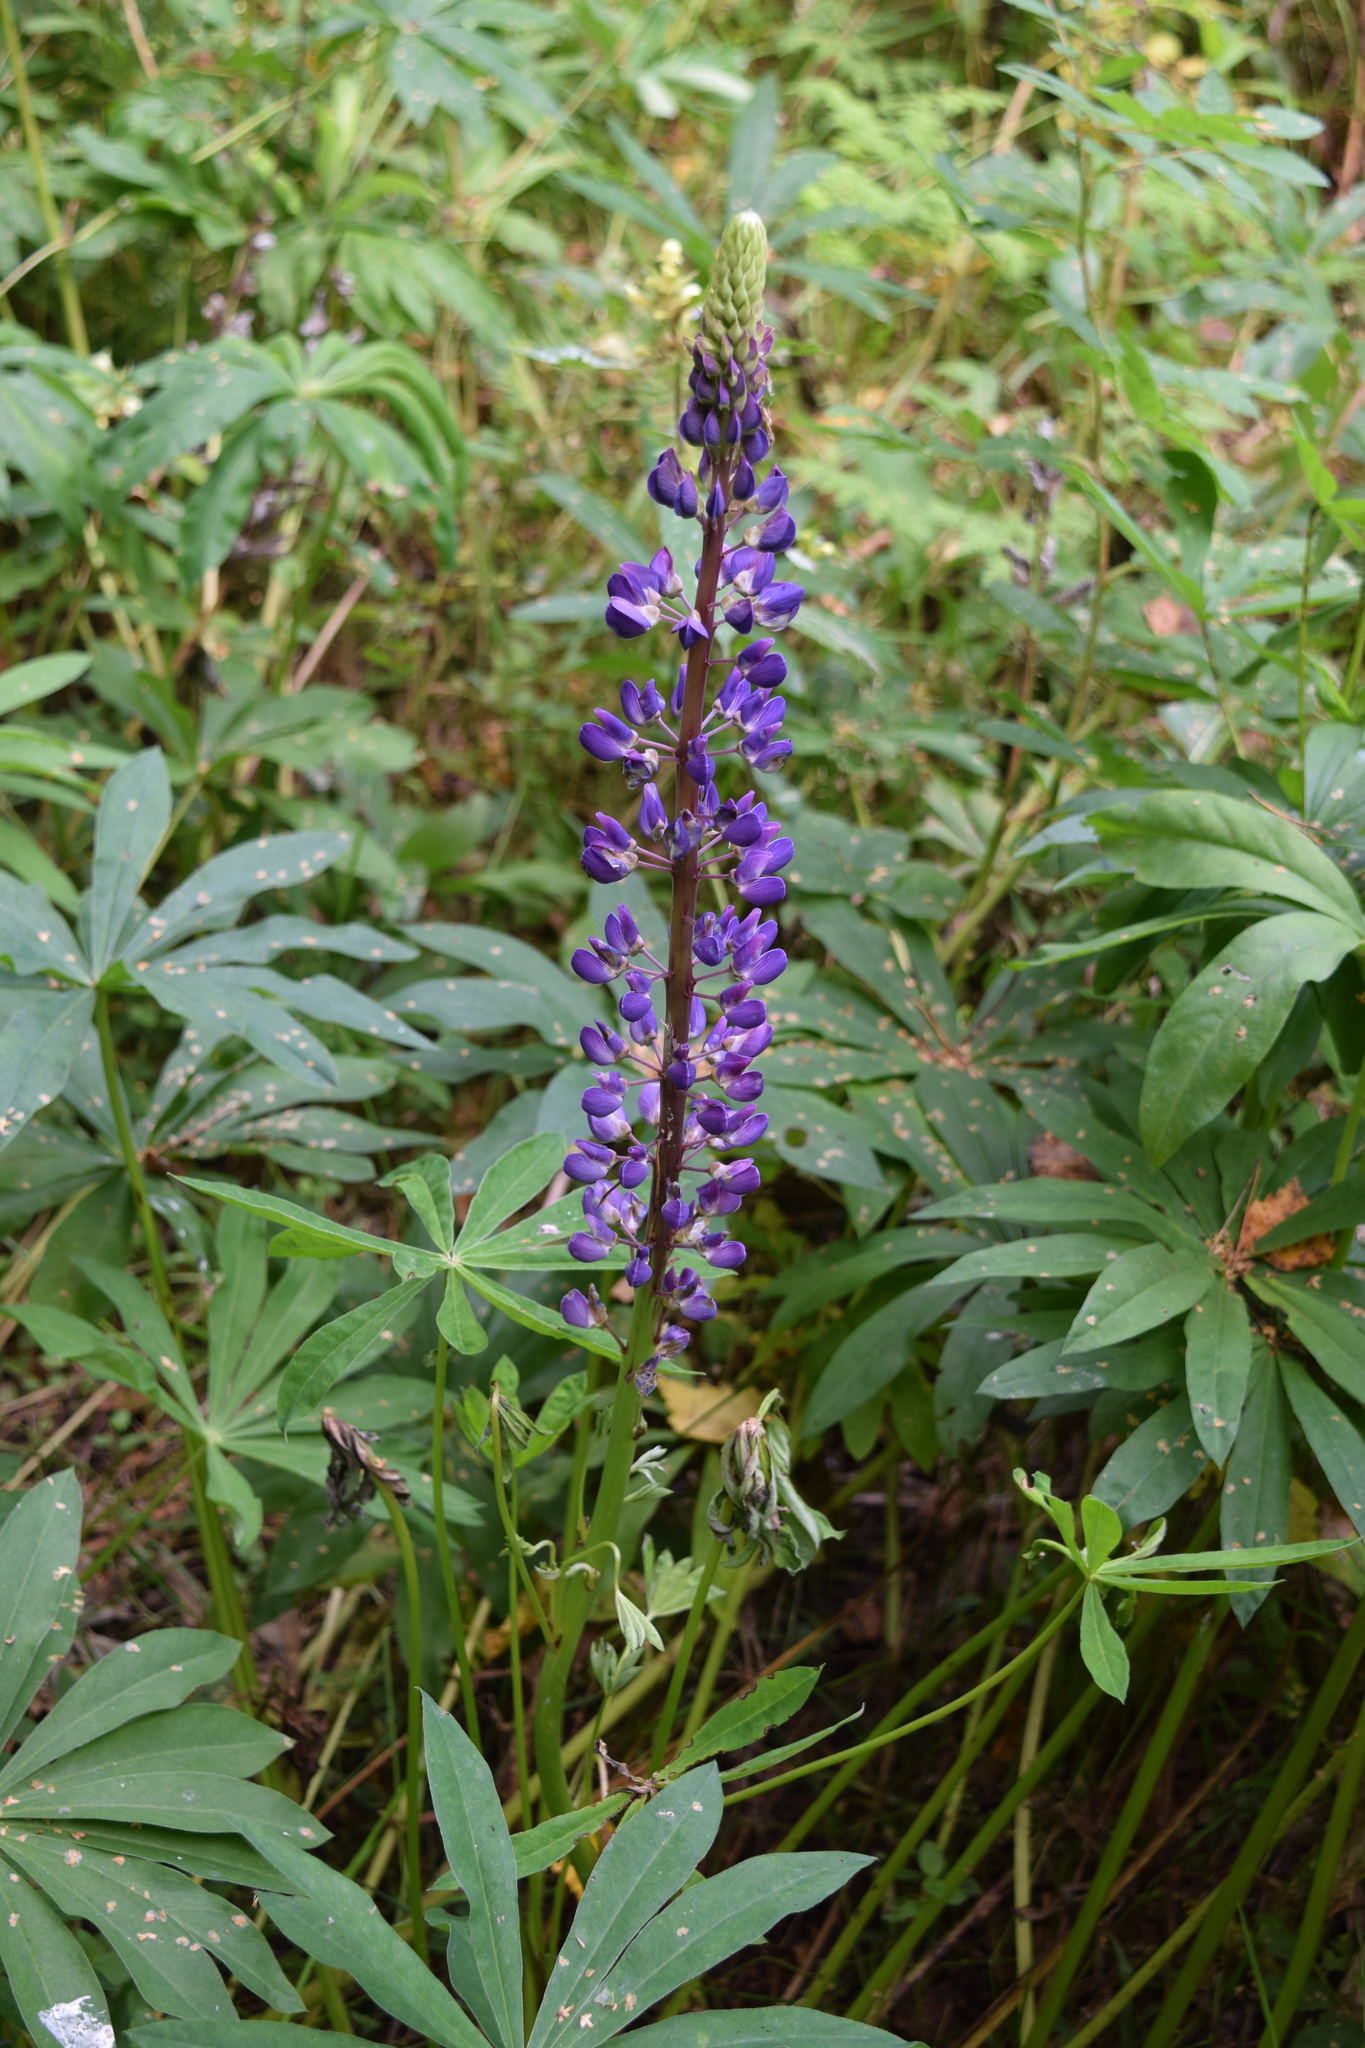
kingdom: Plantae
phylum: Tracheophyta
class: Magnoliopsida
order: Fabales
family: Fabaceae
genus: Lupinus
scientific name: Lupinus polyphyllus
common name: Garden lupin
